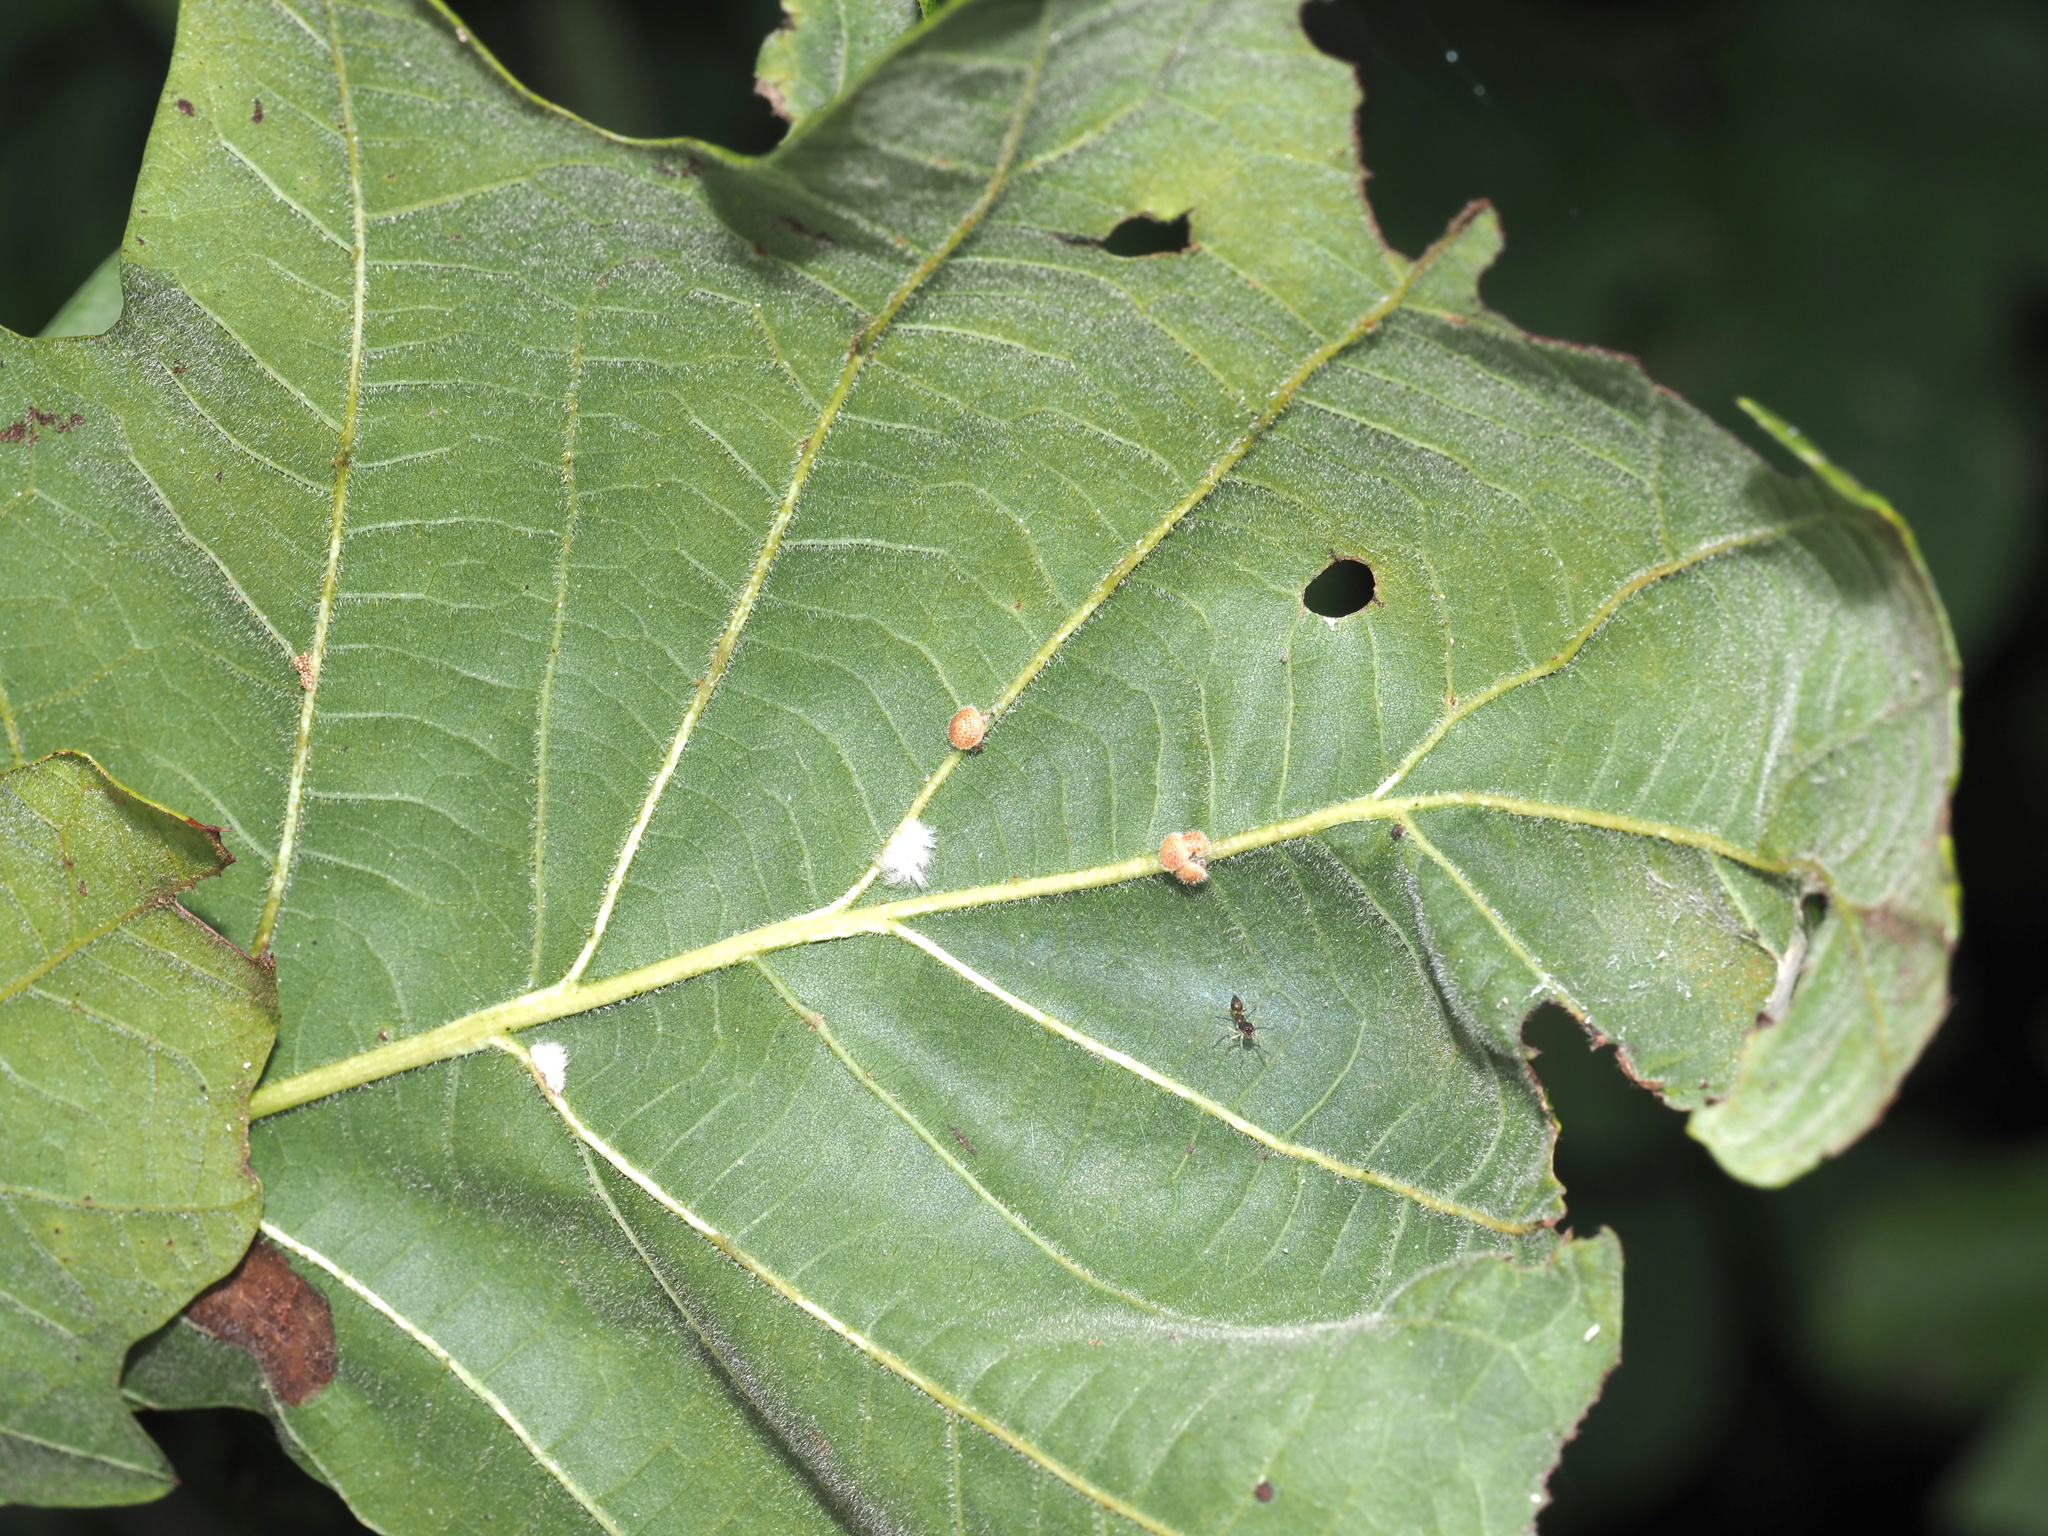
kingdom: Animalia
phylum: Arthropoda
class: Insecta
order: Hymenoptera
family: Cynipidae
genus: Andricus
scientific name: Andricus
